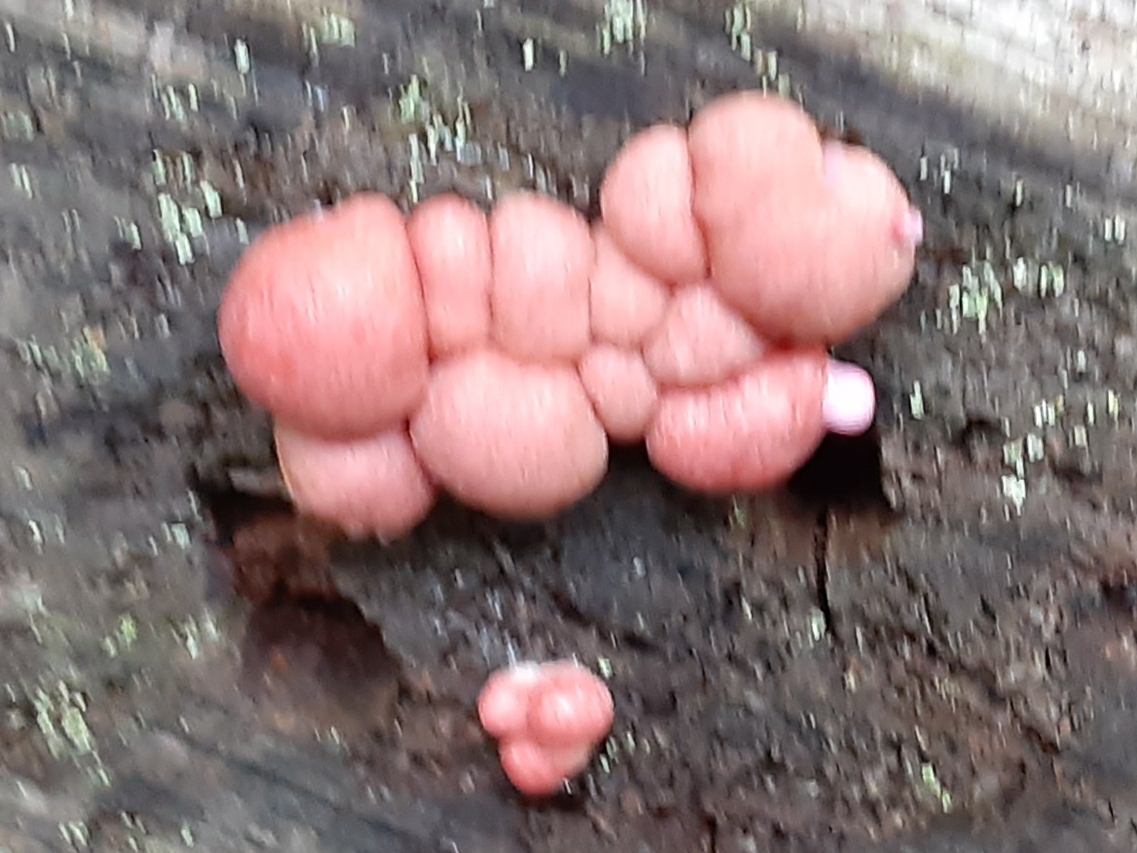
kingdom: Protozoa
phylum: Mycetozoa
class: Myxomycetes
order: Cribrariales
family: Tubiferaceae
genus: Lycogala
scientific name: Lycogala epidendrum
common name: Wolf's milk
